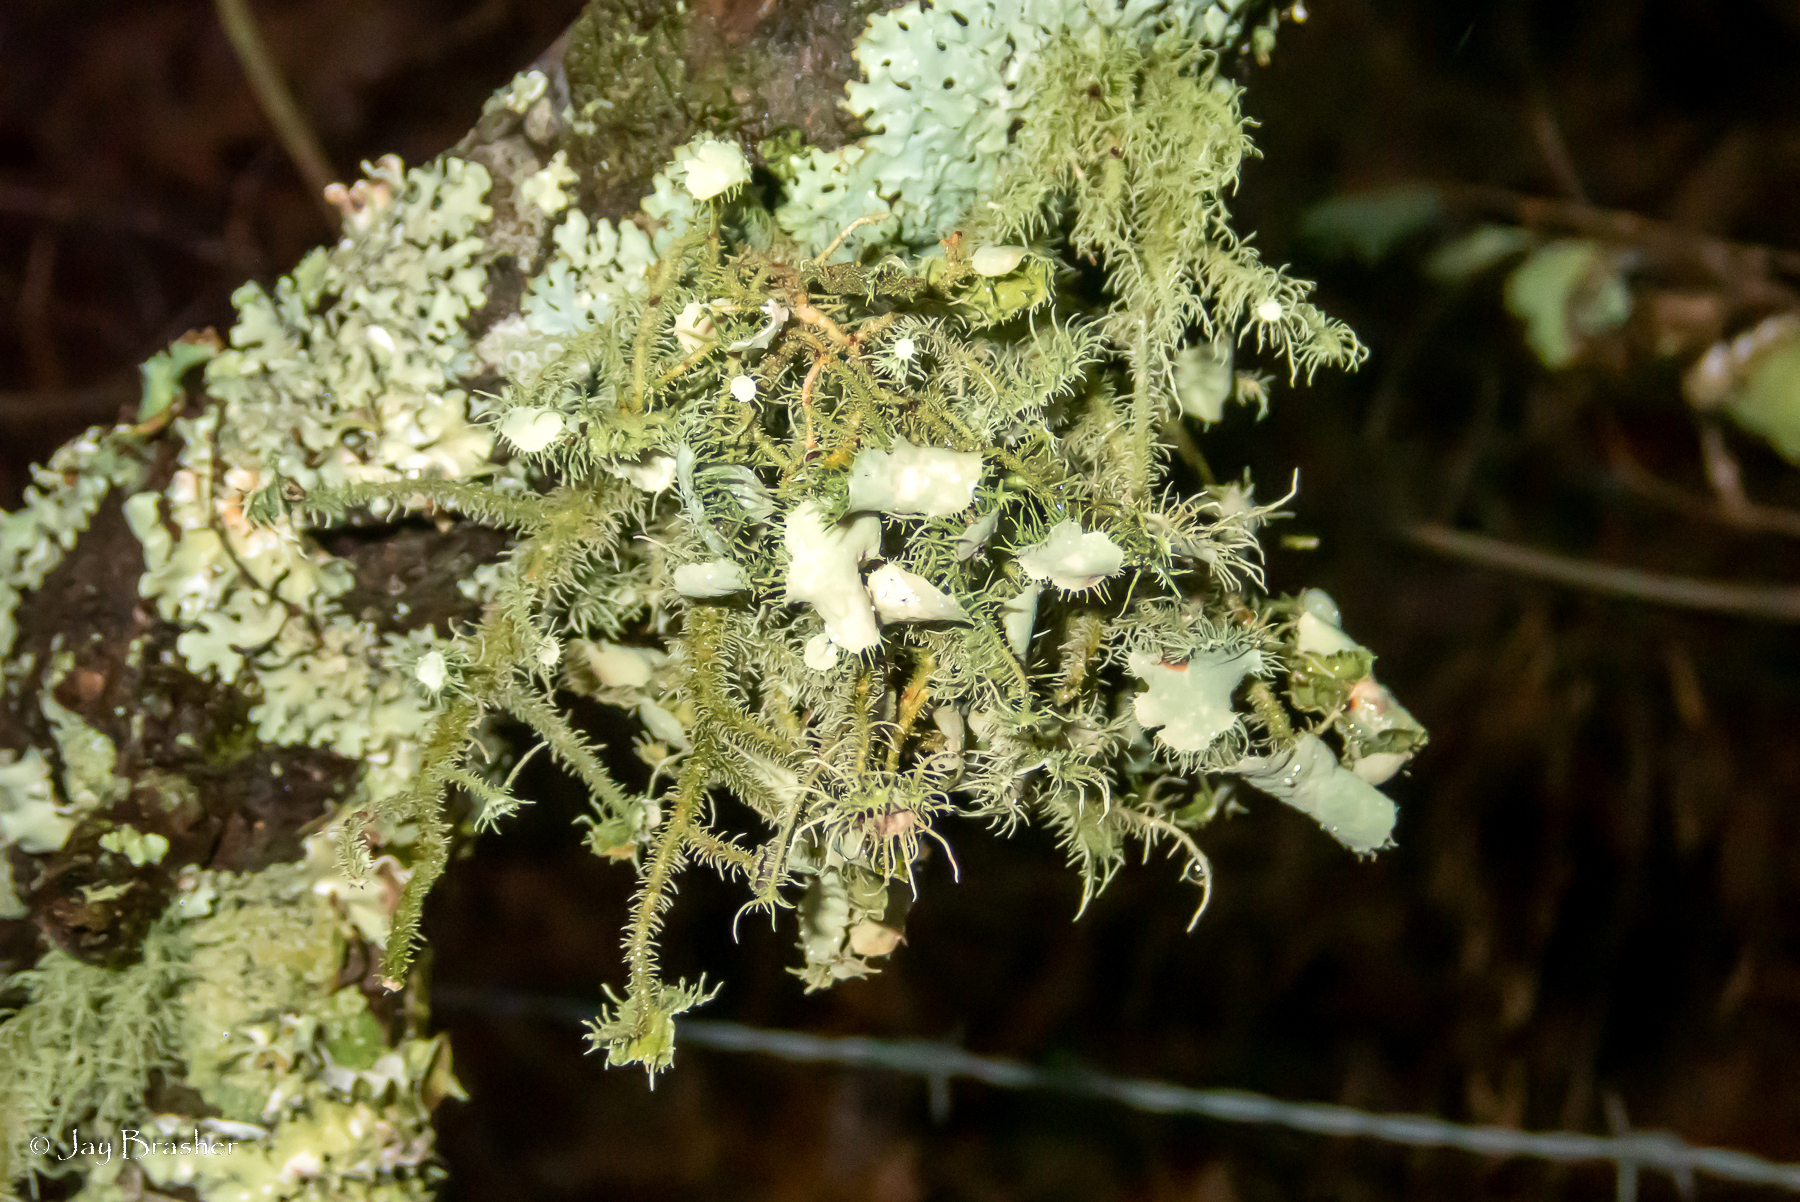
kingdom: Fungi
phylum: Ascomycota
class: Lecanoromycetes
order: Lecanorales
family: Parmeliaceae
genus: Usnea
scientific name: Usnea strigosa
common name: Bushy beard lichen
